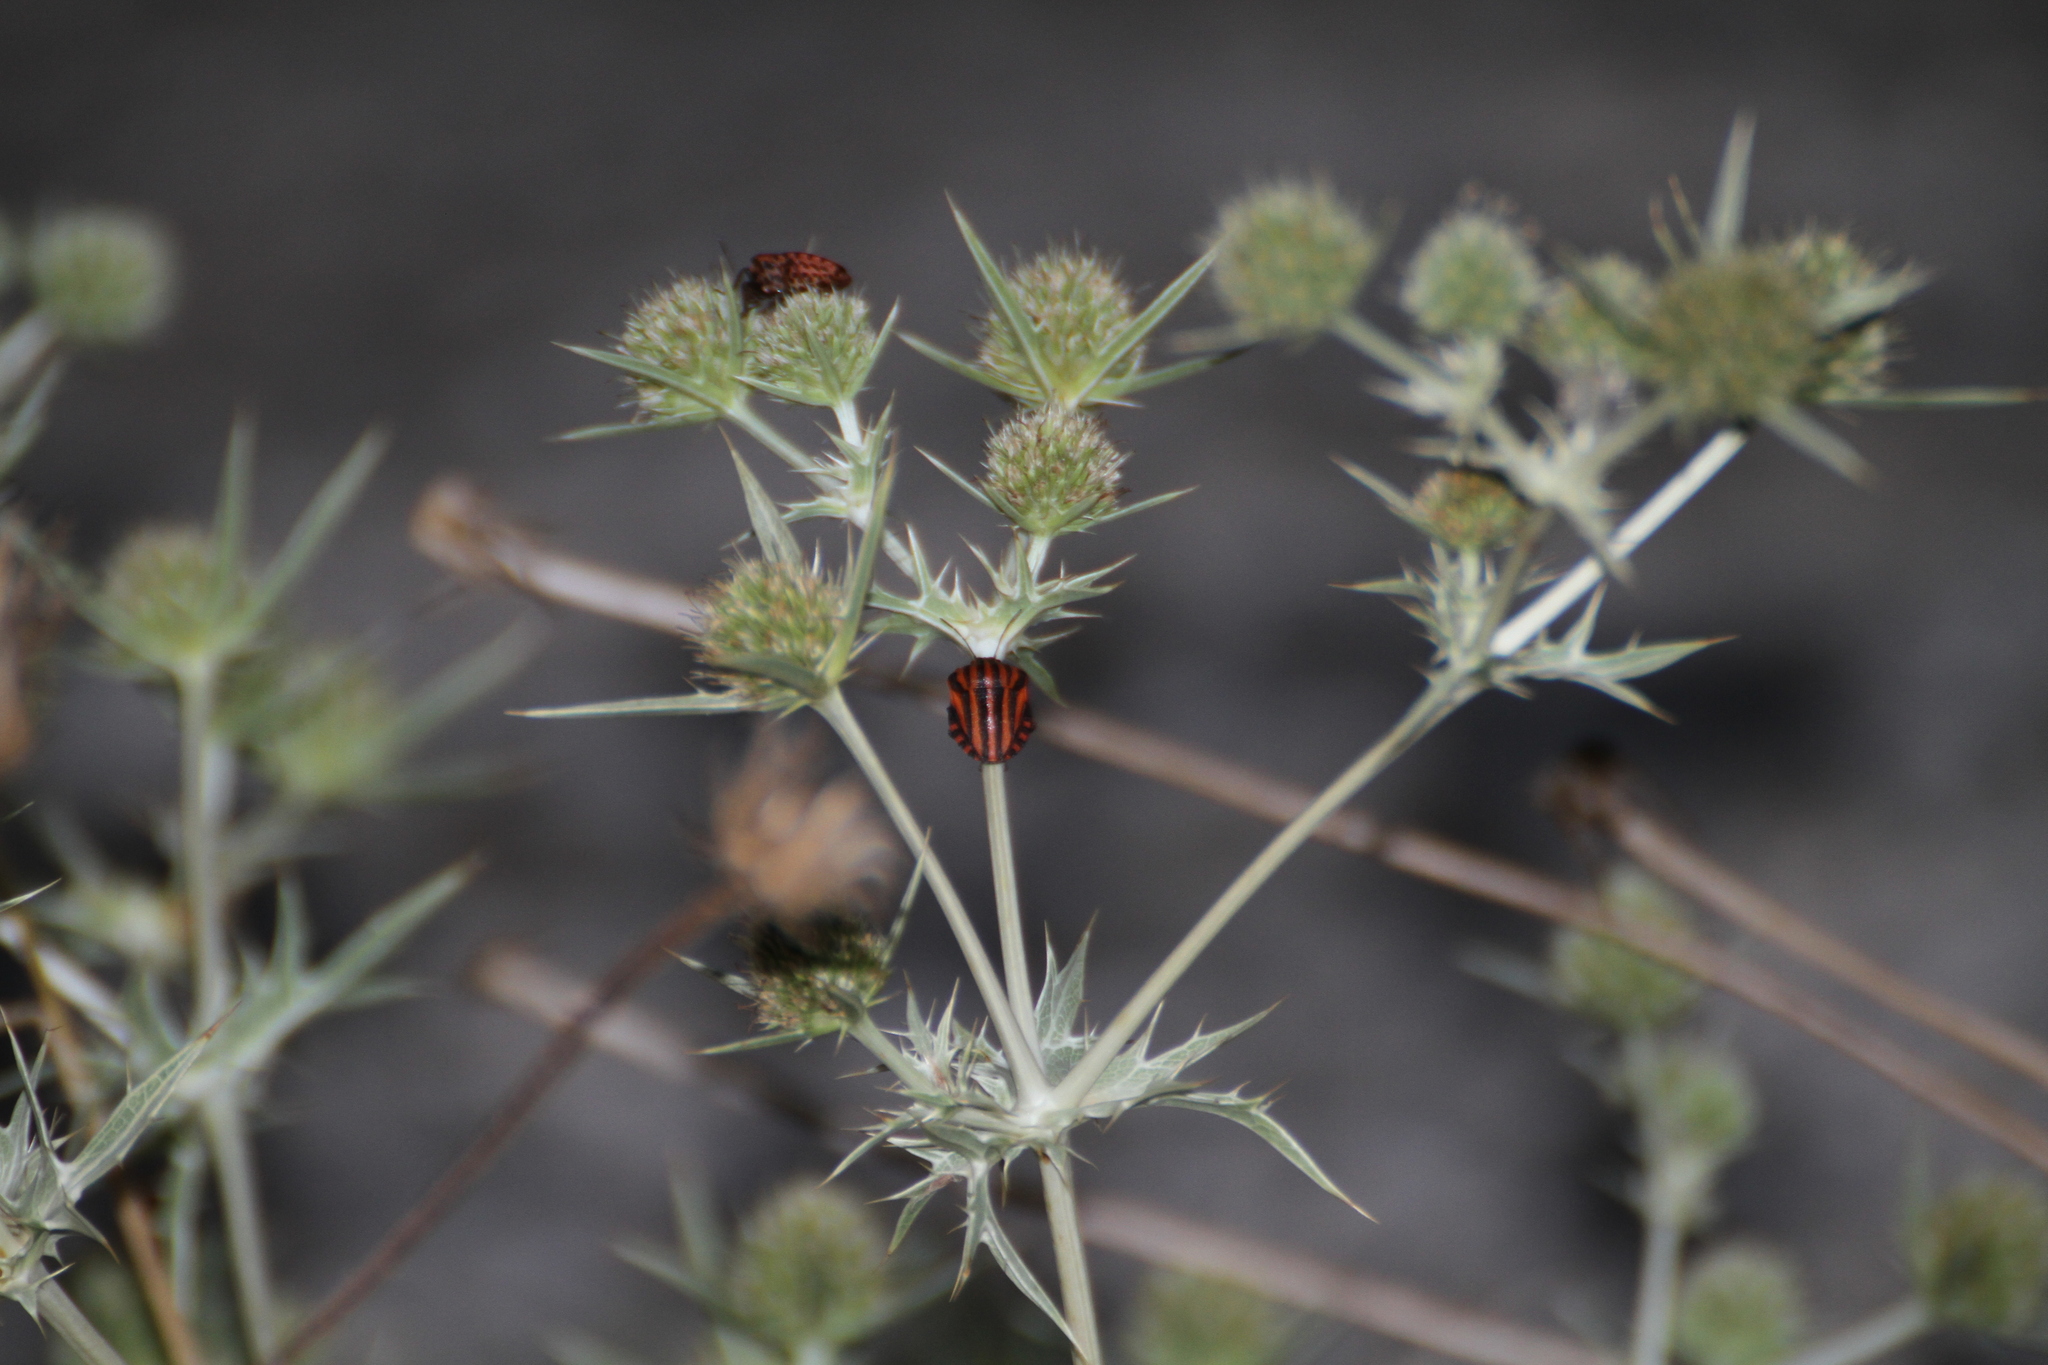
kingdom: Animalia
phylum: Arthropoda
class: Insecta
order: Hemiptera
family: Pentatomidae
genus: Graphosoma
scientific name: Graphosoma italicum
